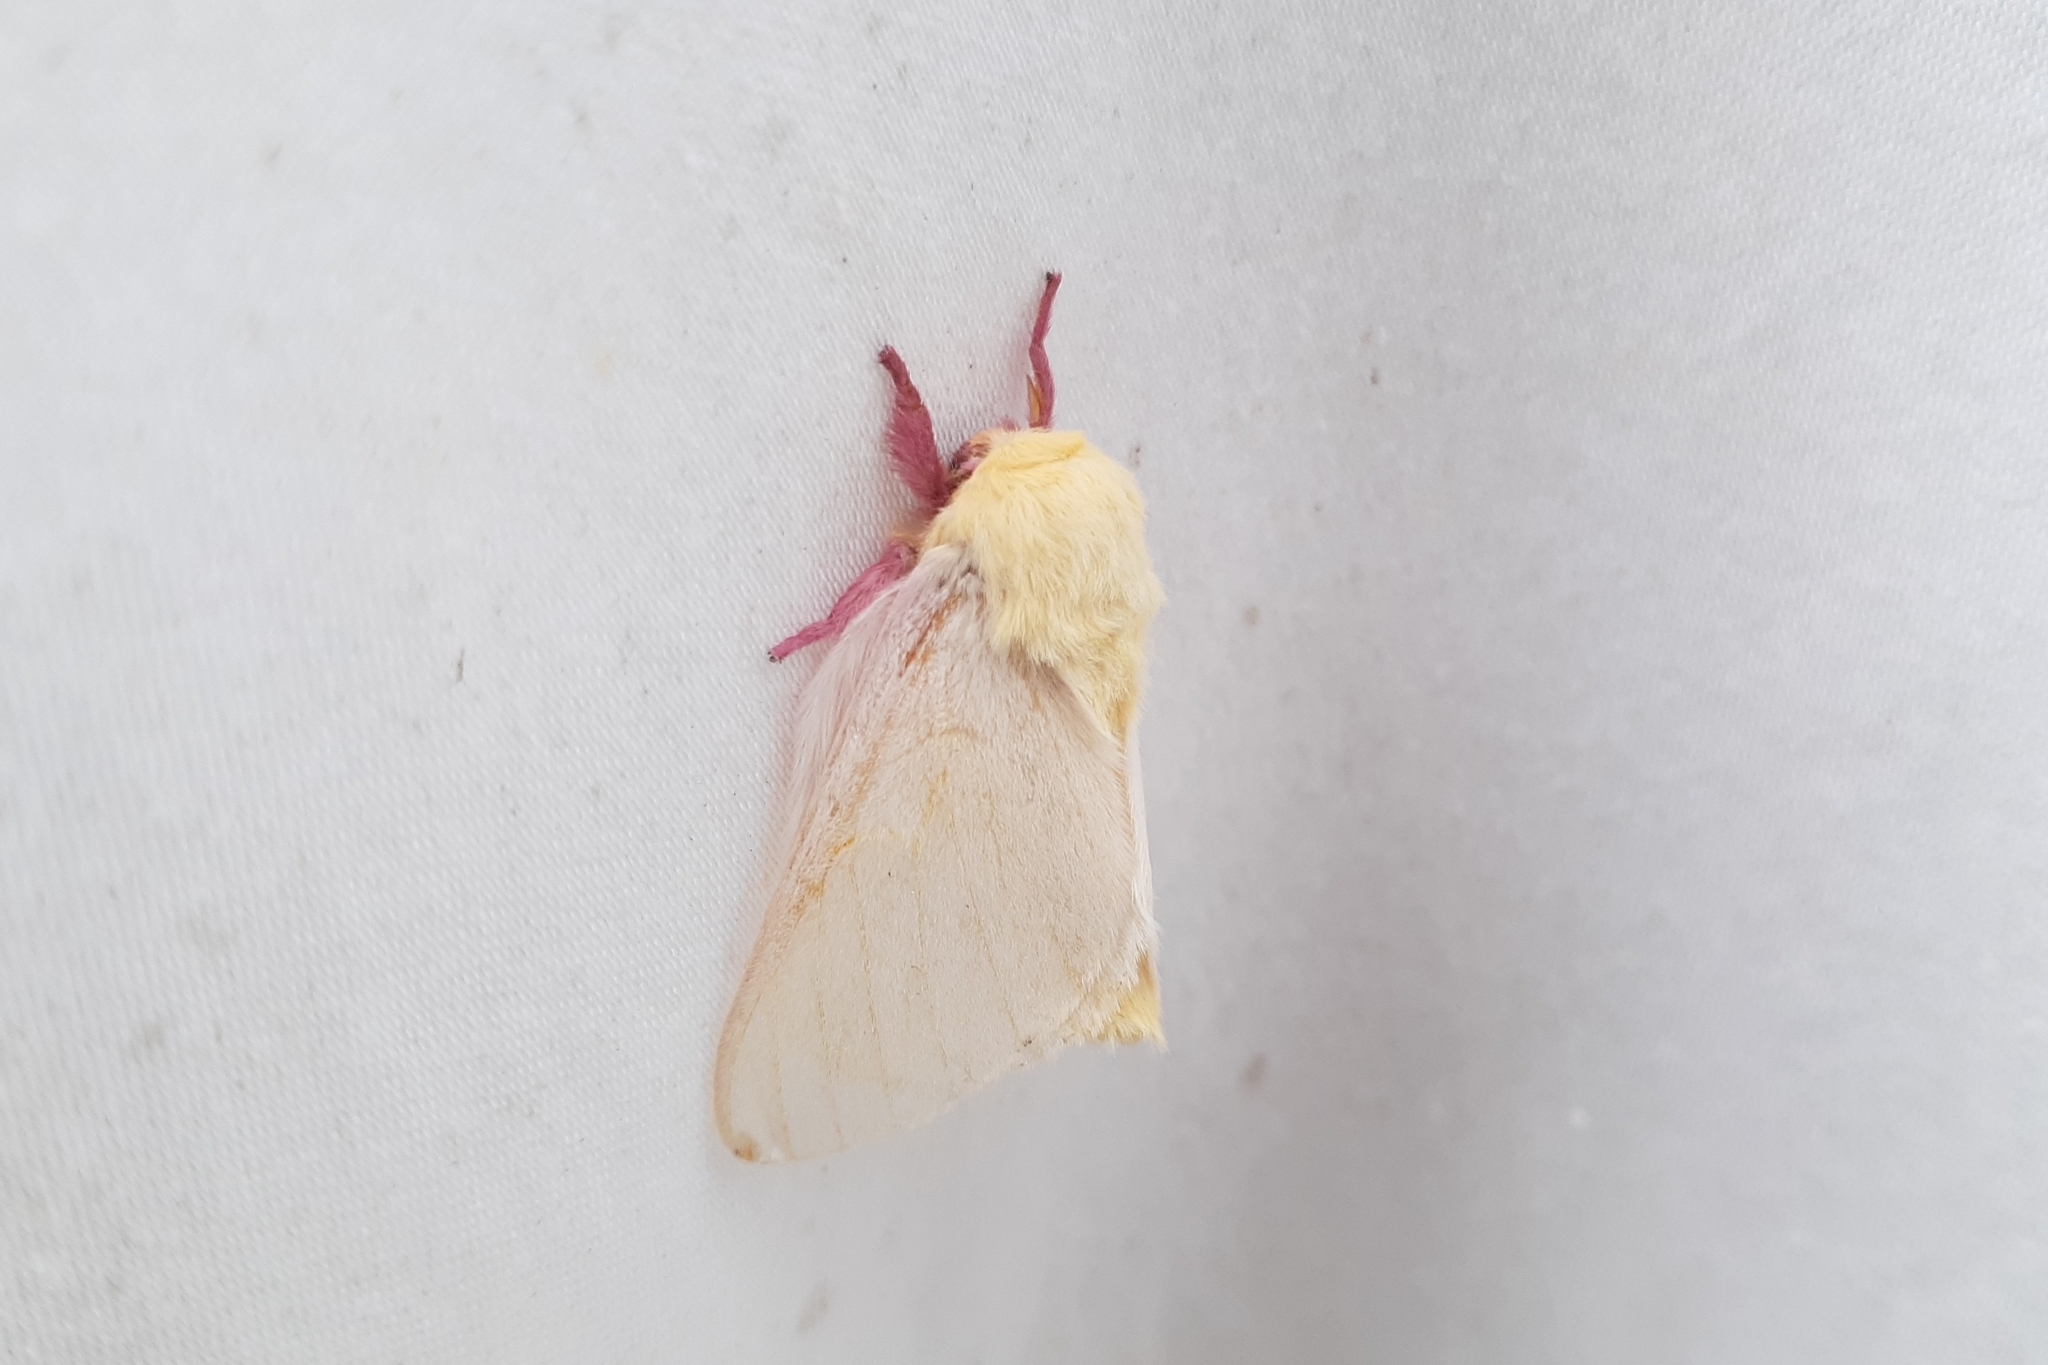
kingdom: Animalia
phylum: Arthropoda
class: Insecta
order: Lepidoptera
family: Saturniidae
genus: Dryocampa
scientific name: Dryocampa rubicunda
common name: Rosy maple moth
